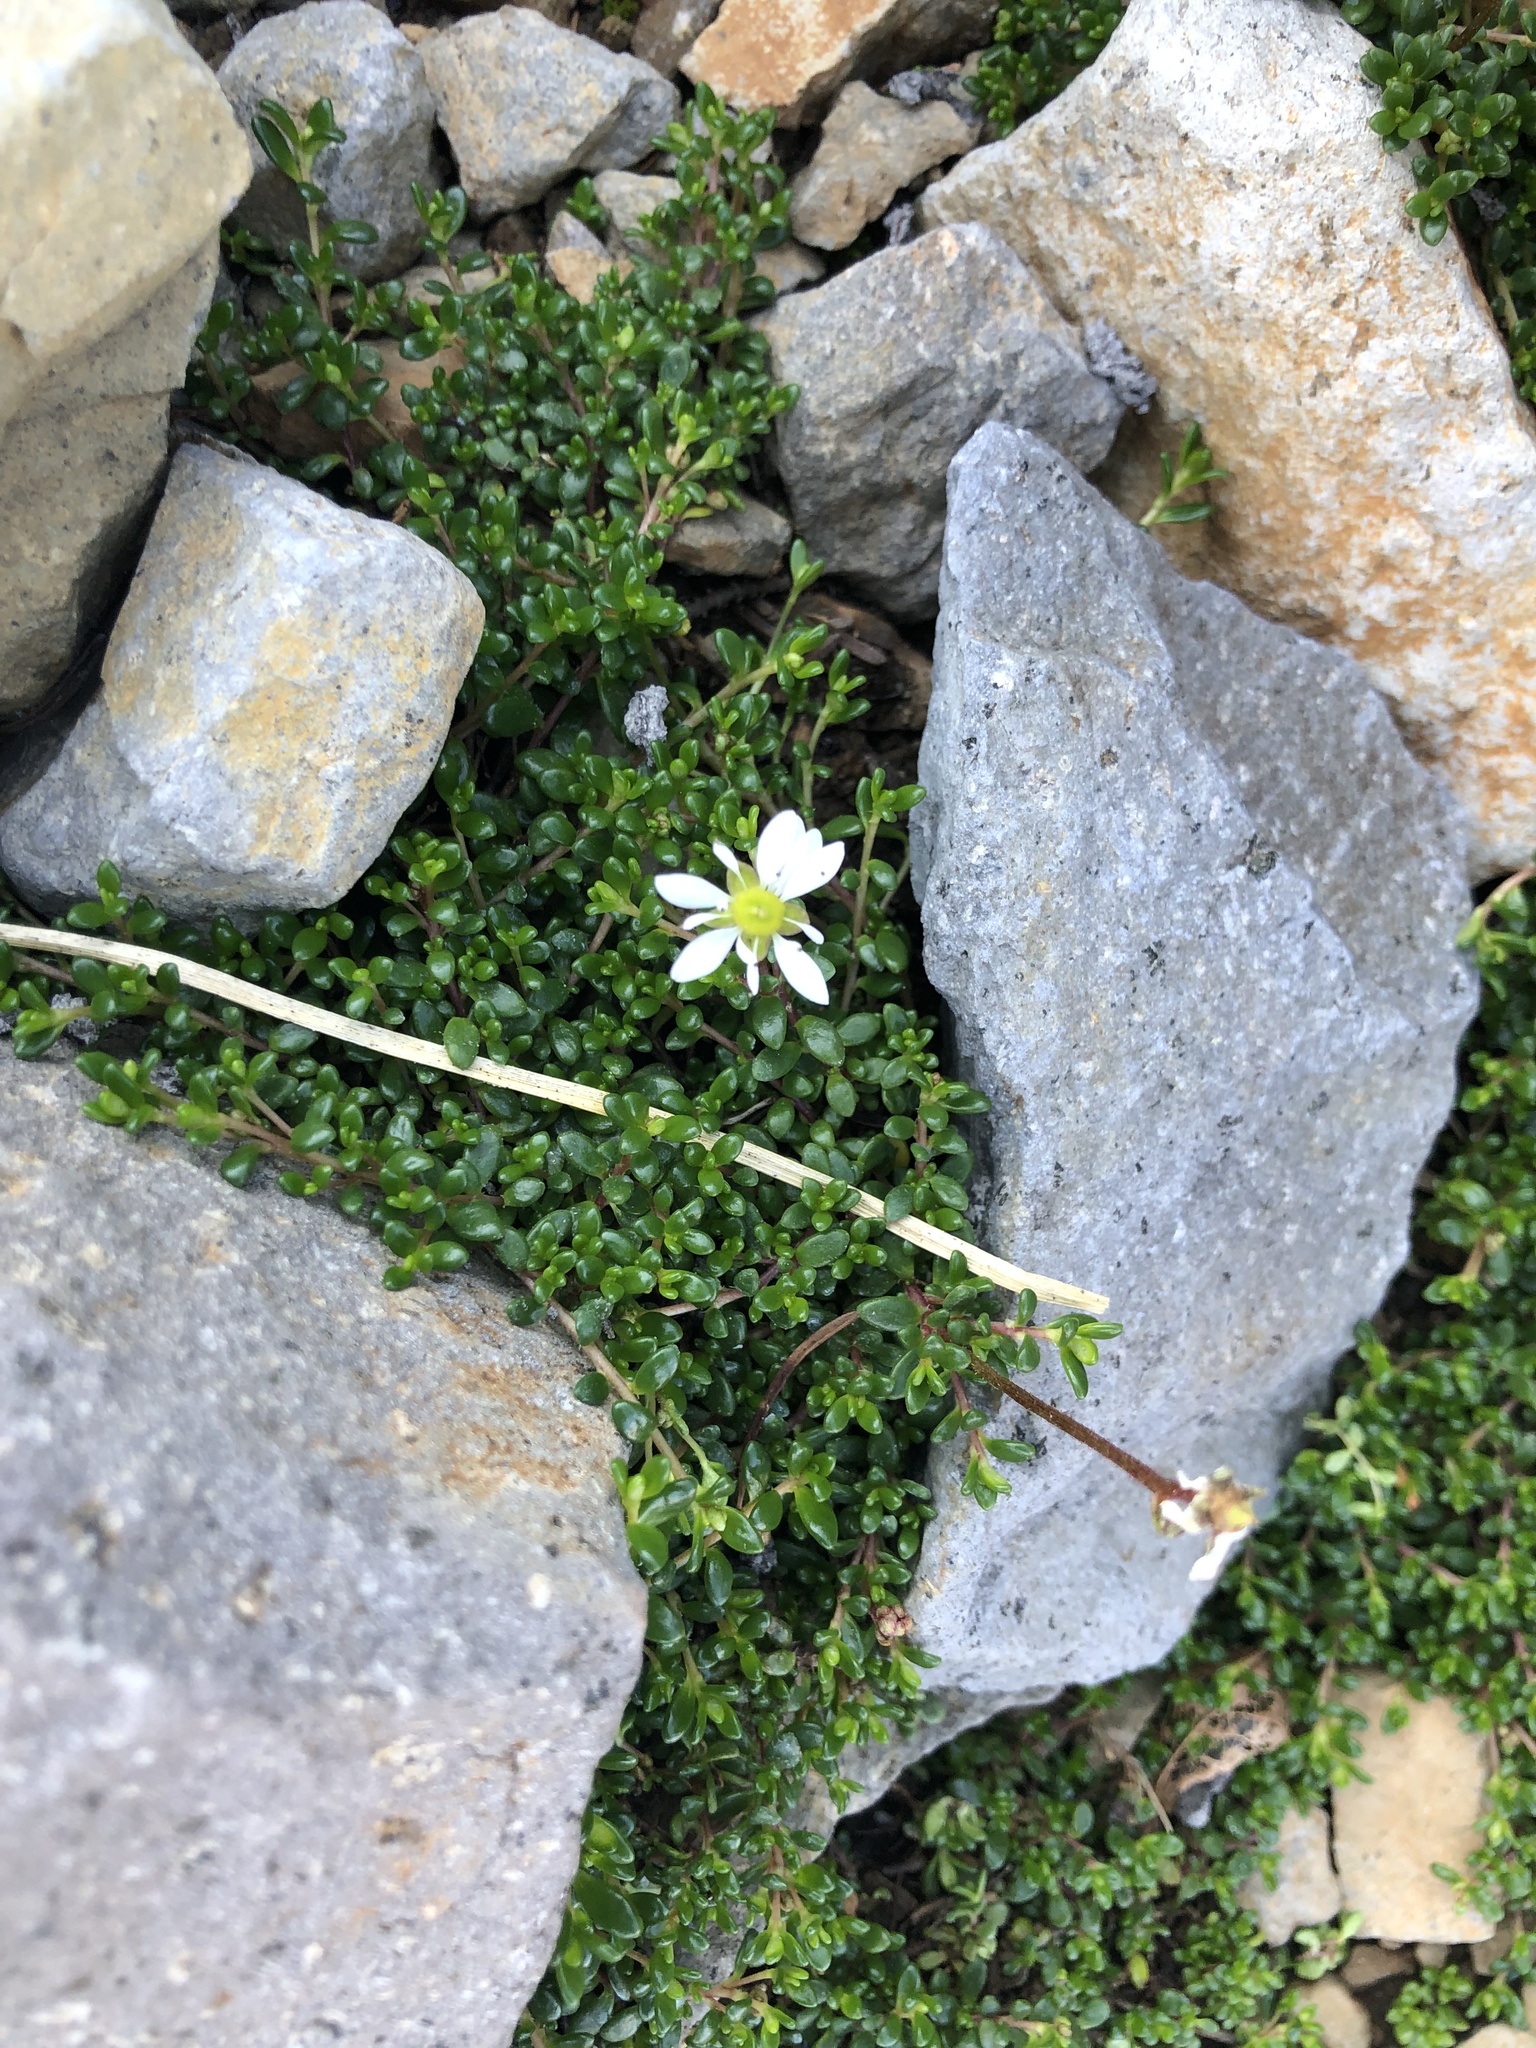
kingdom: Plantae
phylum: Tracheophyta
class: Magnoliopsida
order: Saxifragales
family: Saxifragaceae
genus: Micranthes
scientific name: Micranthes tolmiei
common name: Tolmie's saxifrage
